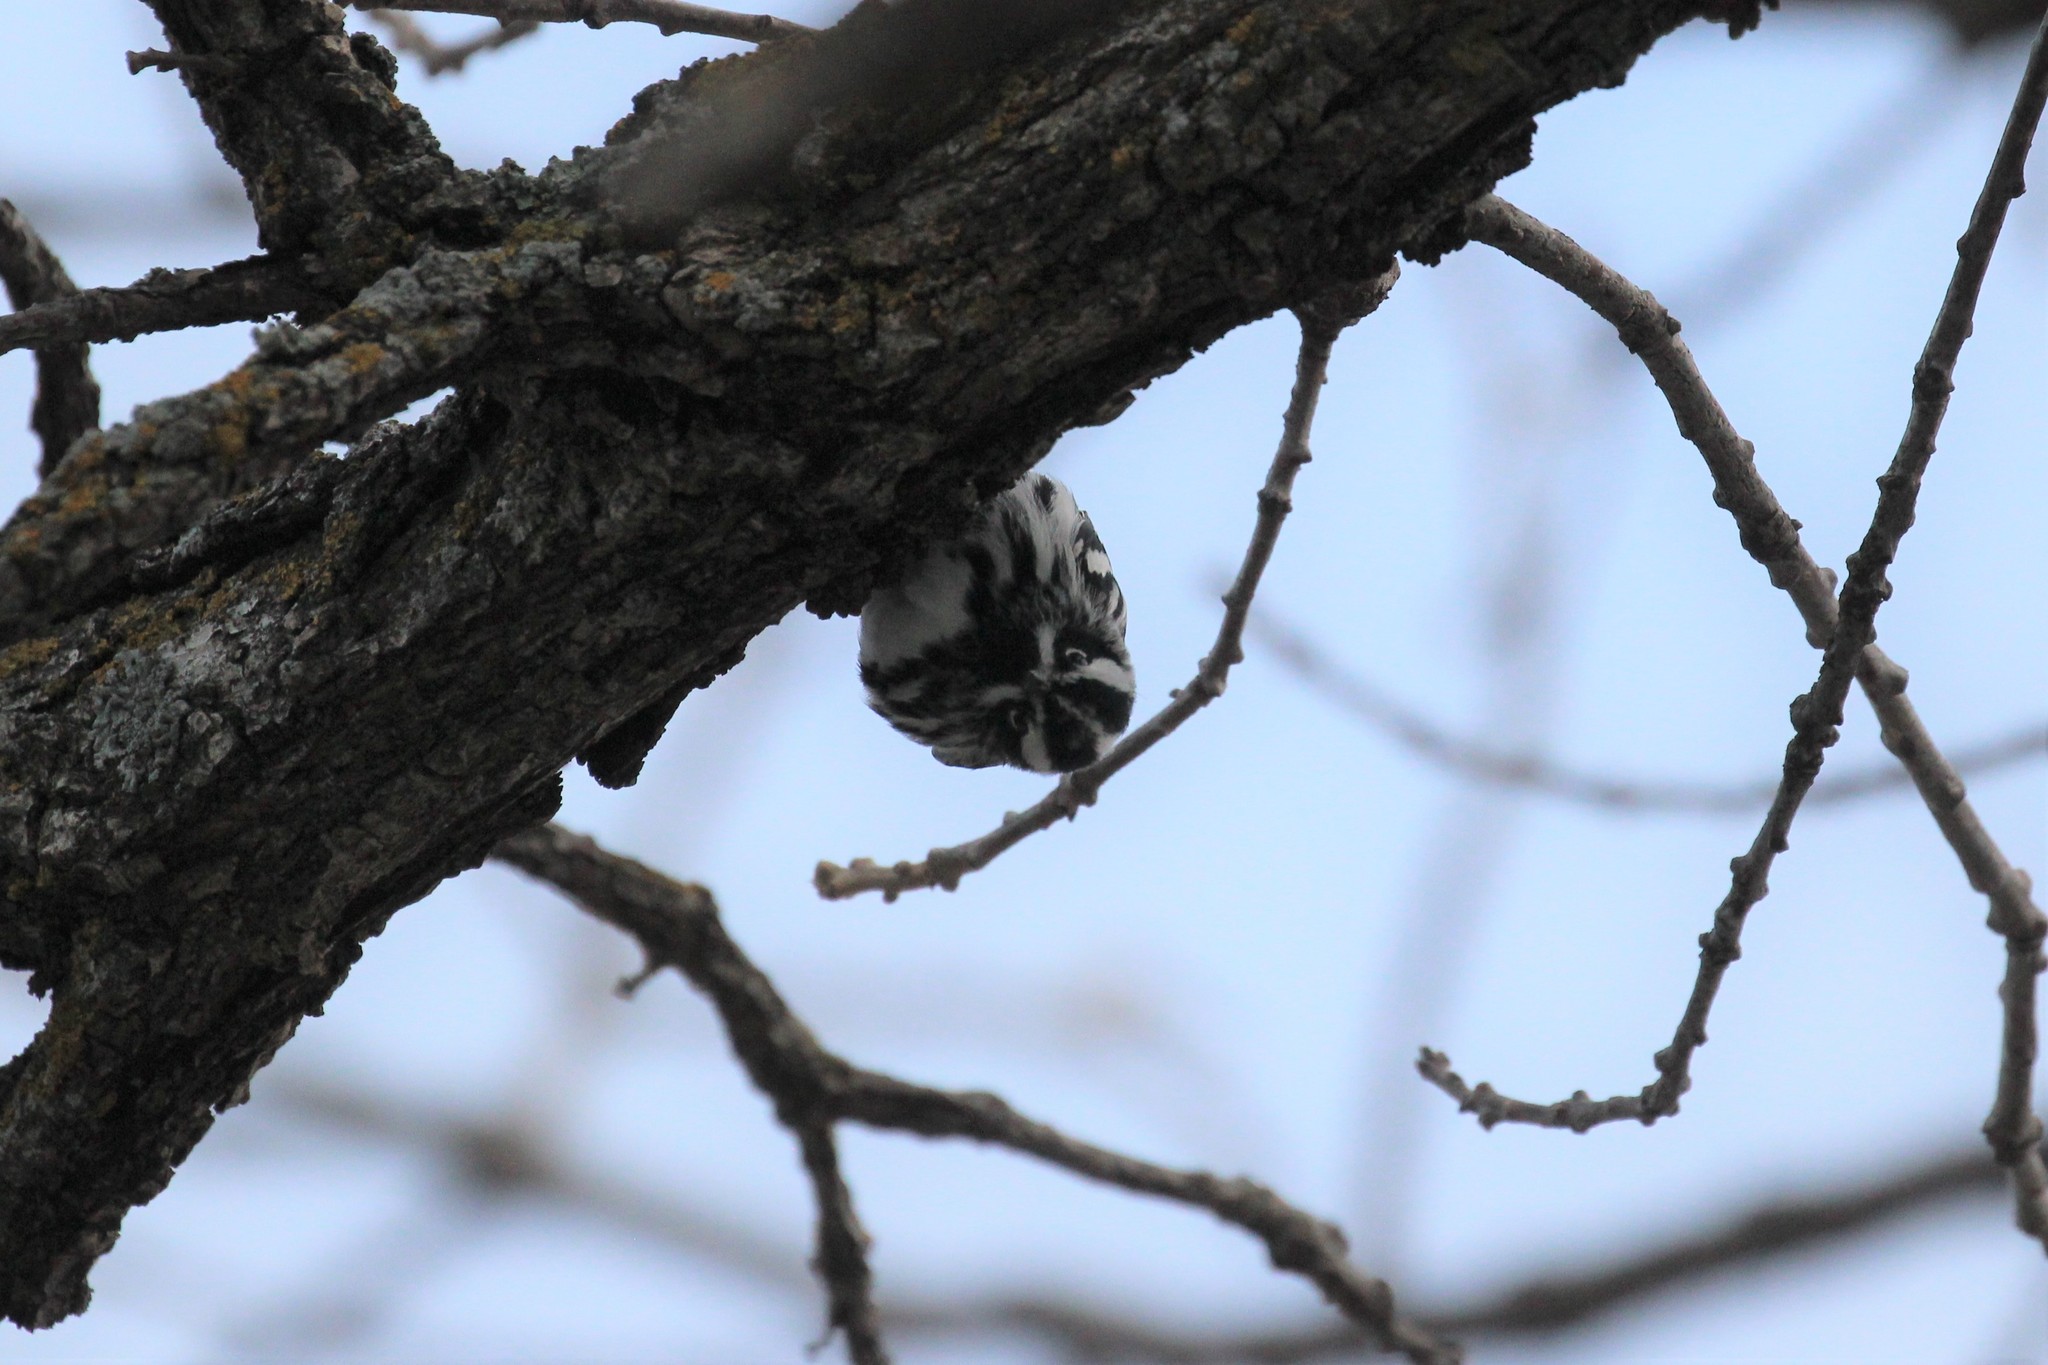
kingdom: Animalia
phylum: Chordata
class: Aves
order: Passeriformes
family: Parulidae
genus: Mniotilta
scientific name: Mniotilta varia
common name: Black-and-white warbler
